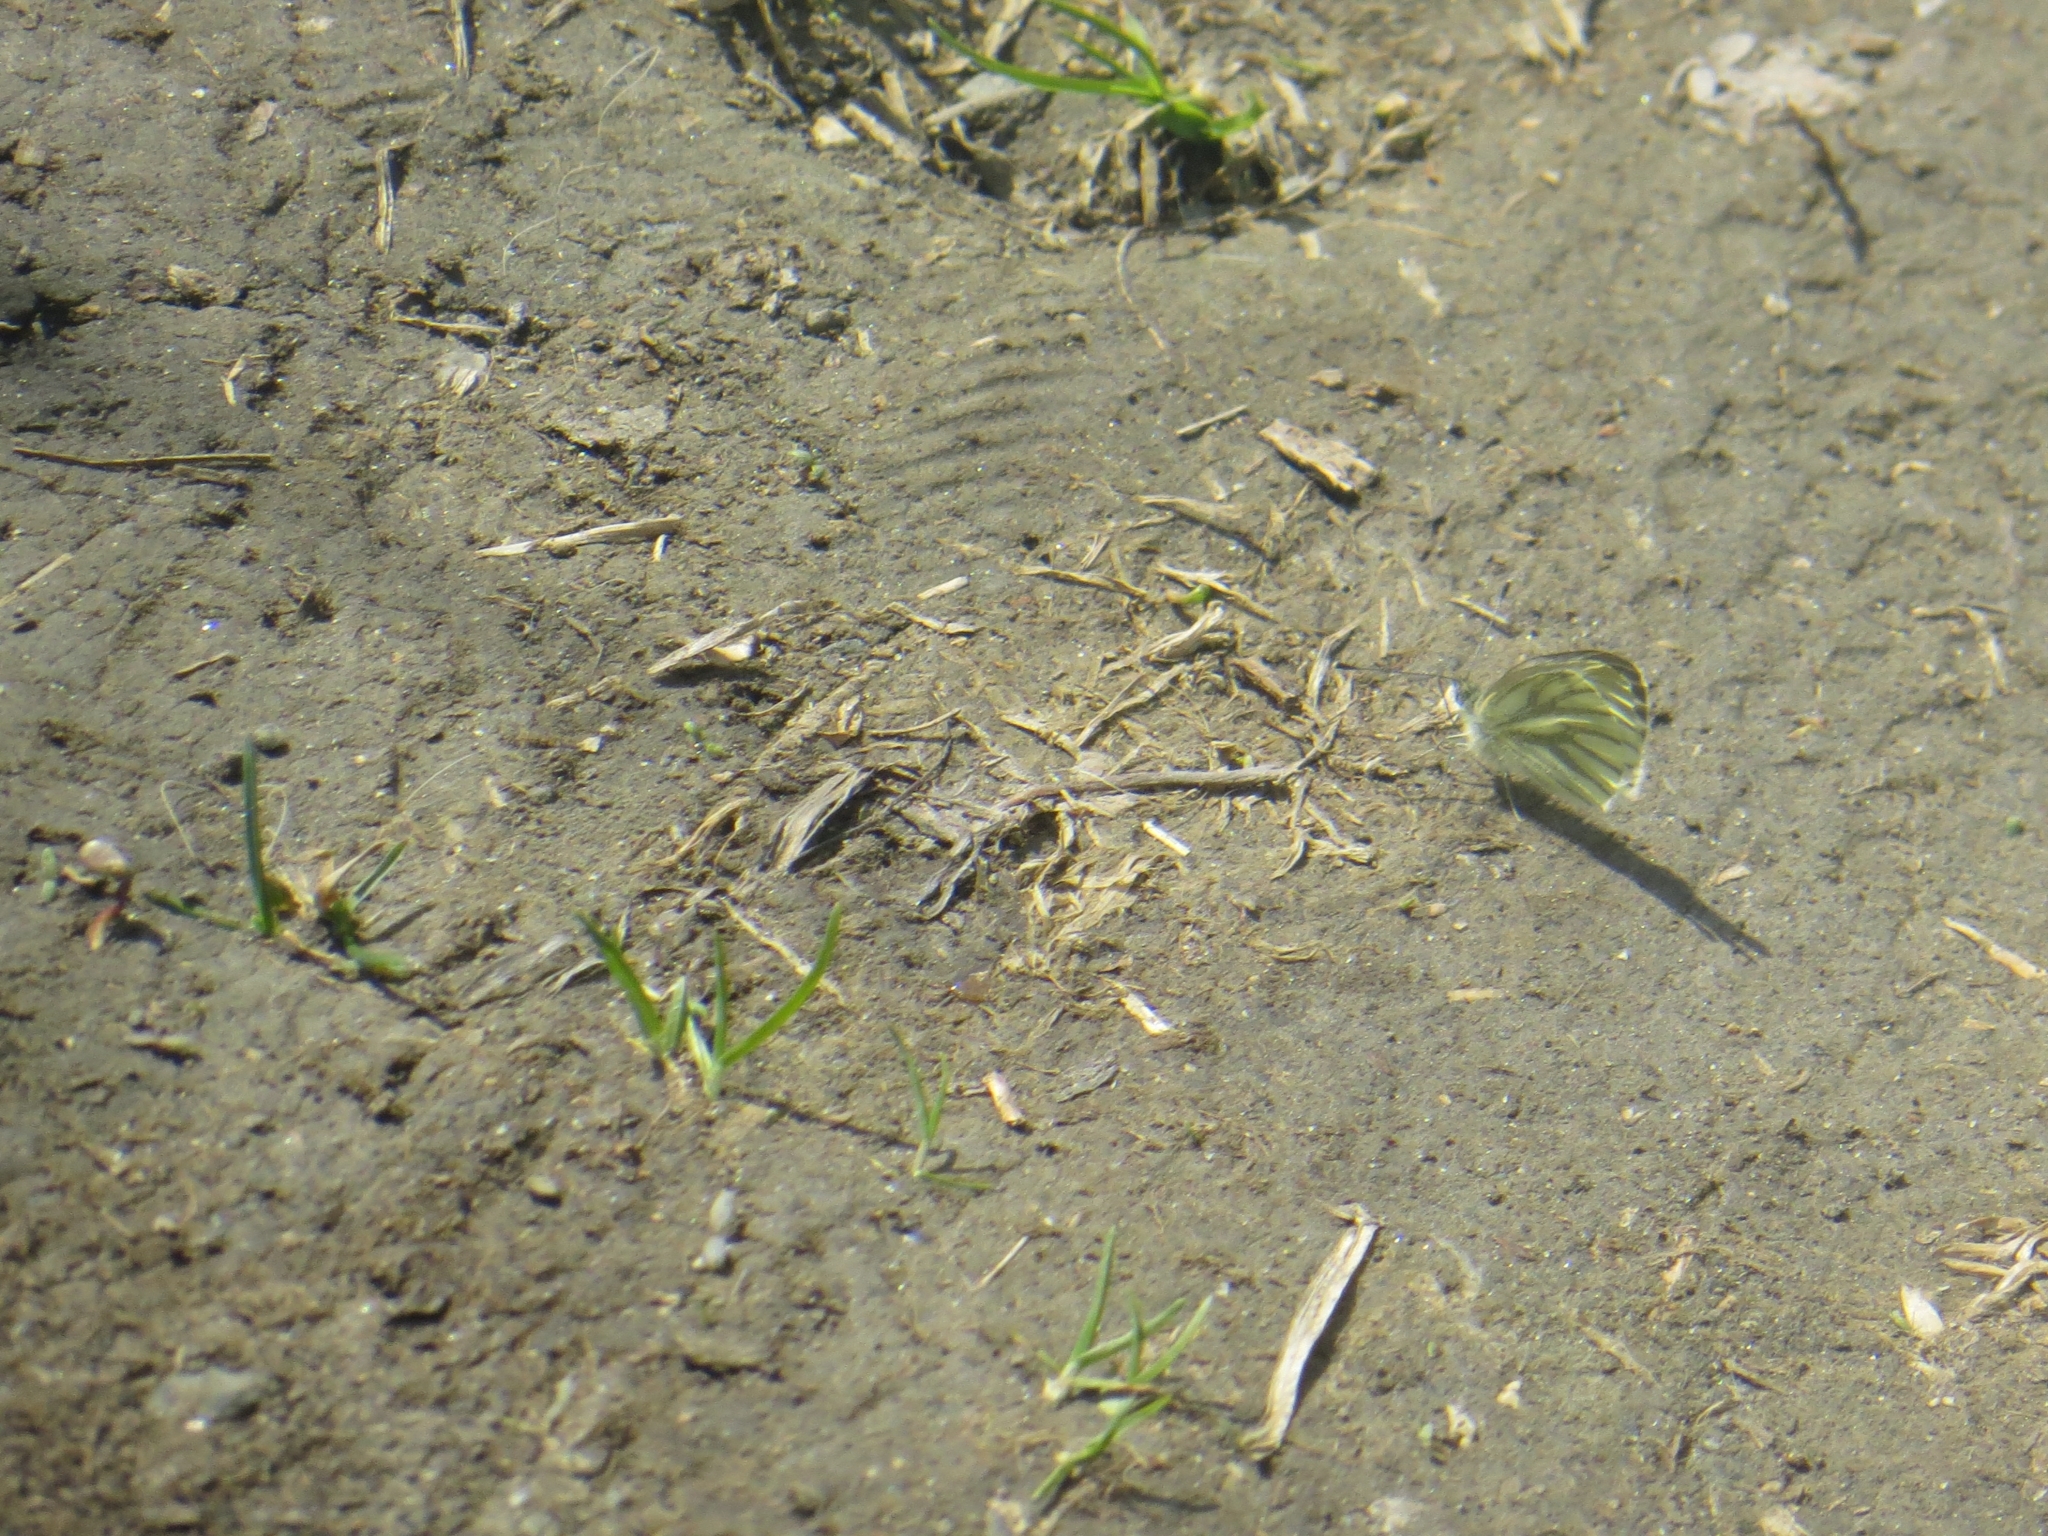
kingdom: Animalia
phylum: Arthropoda
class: Insecta
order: Lepidoptera
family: Pieridae
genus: Pieris
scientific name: Pieris napi
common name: Green-veined white
